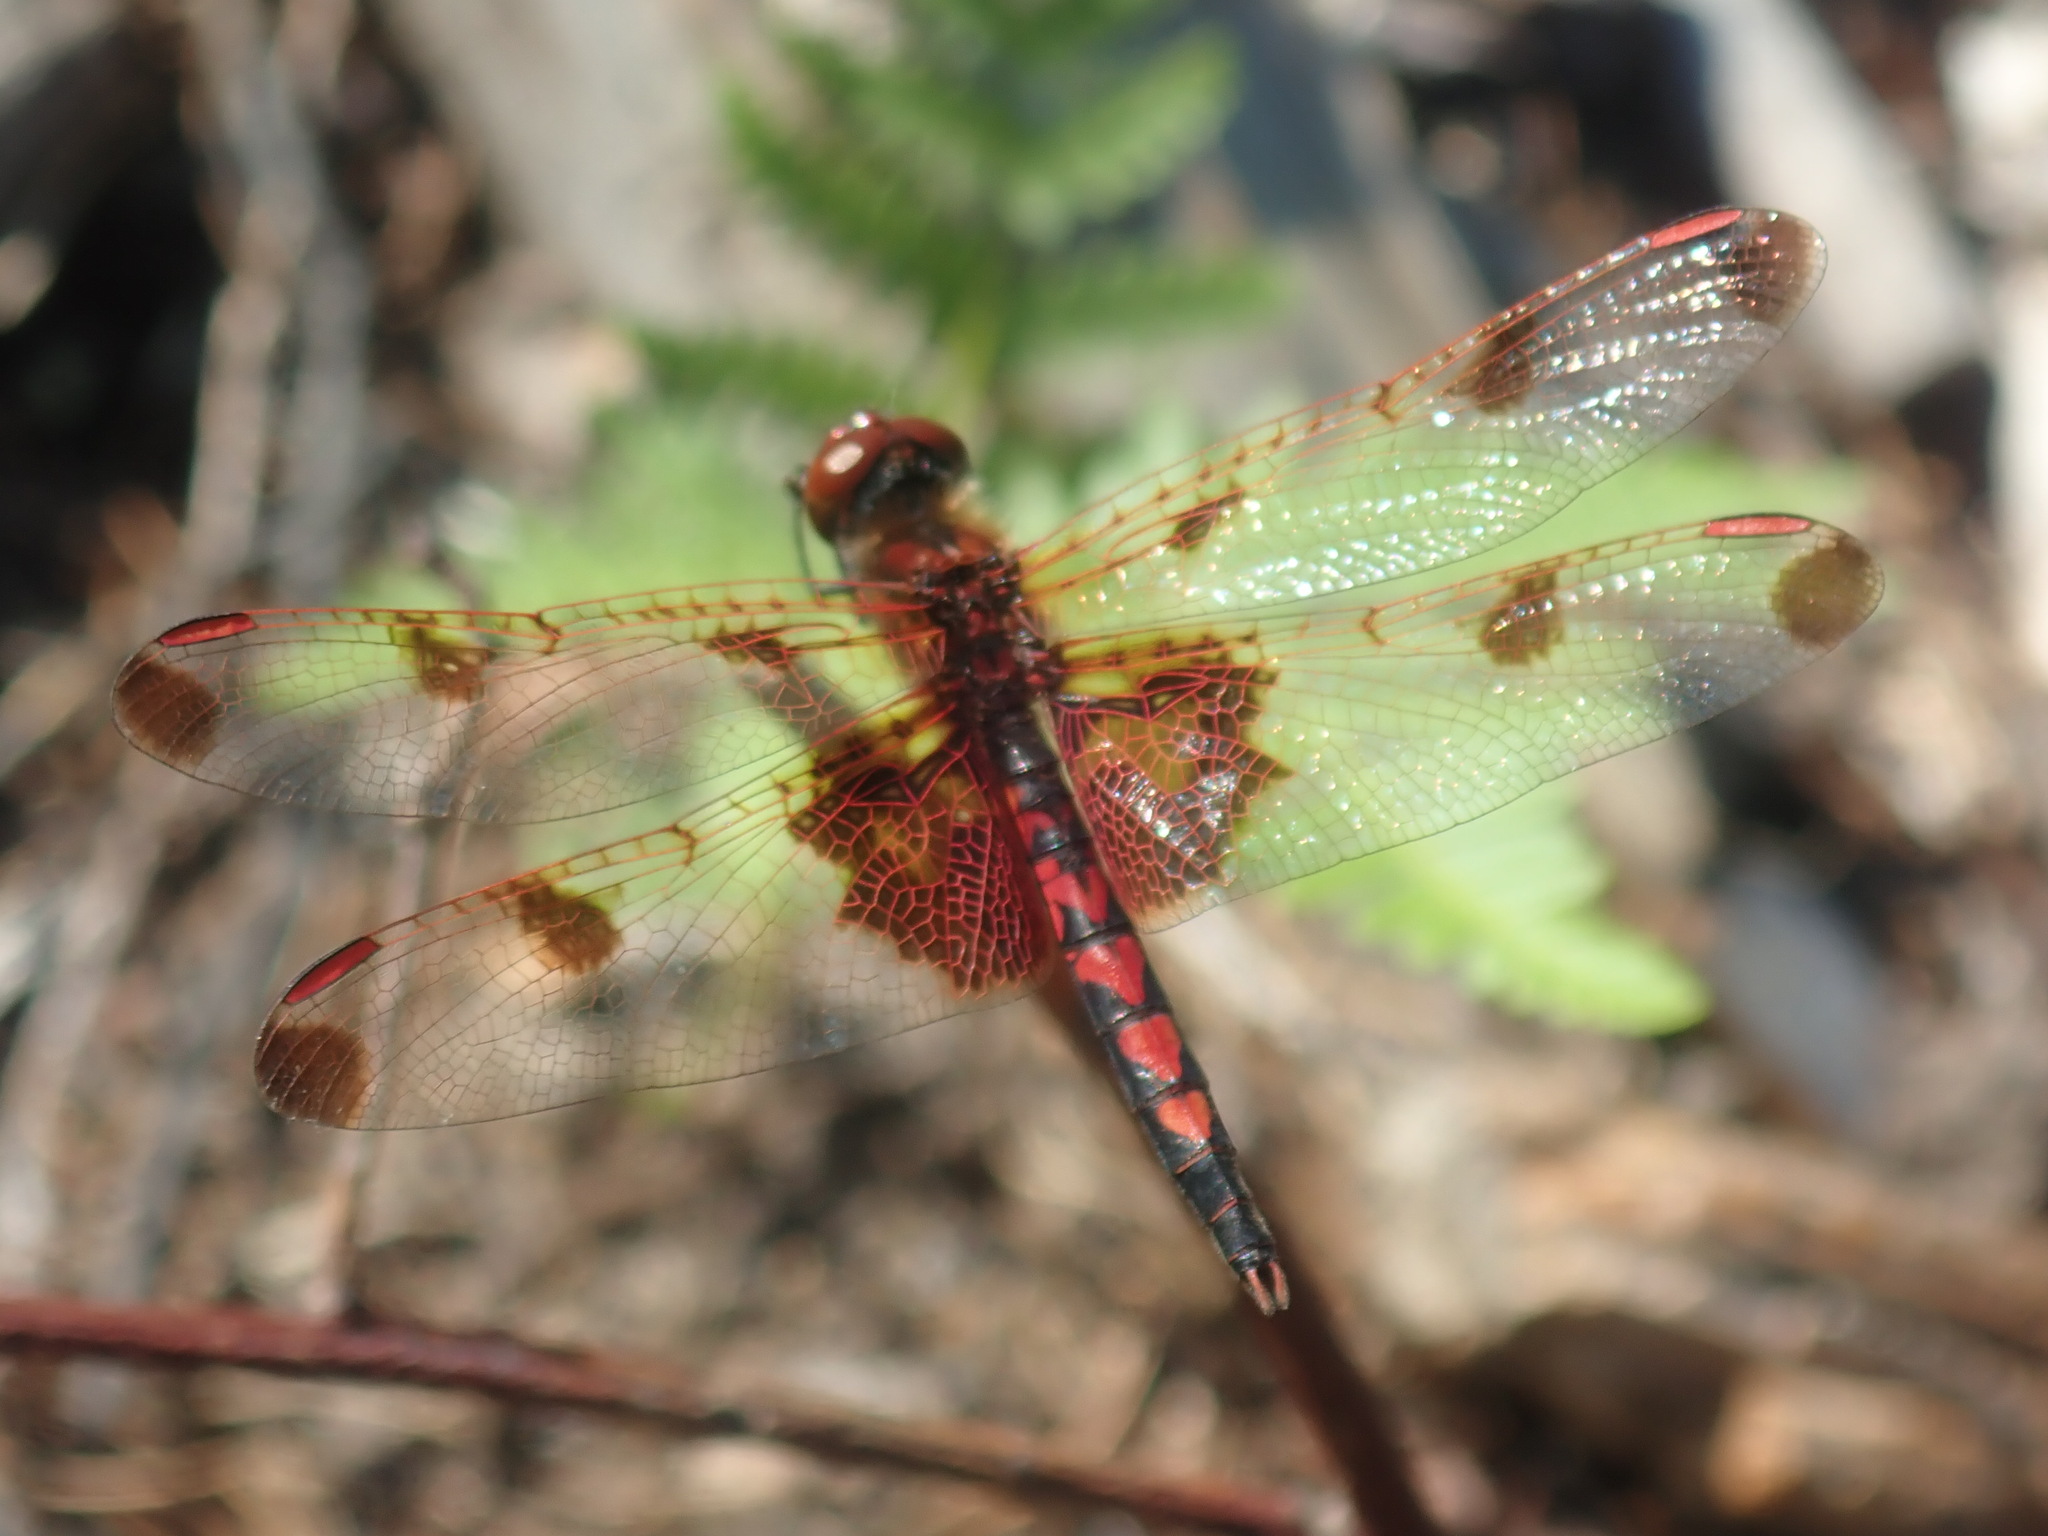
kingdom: Animalia
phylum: Arthropoda
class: Insecta
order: Odonata
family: Libellulidae
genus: Celithemis
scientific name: Celithemis elisa
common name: Calico pennant
